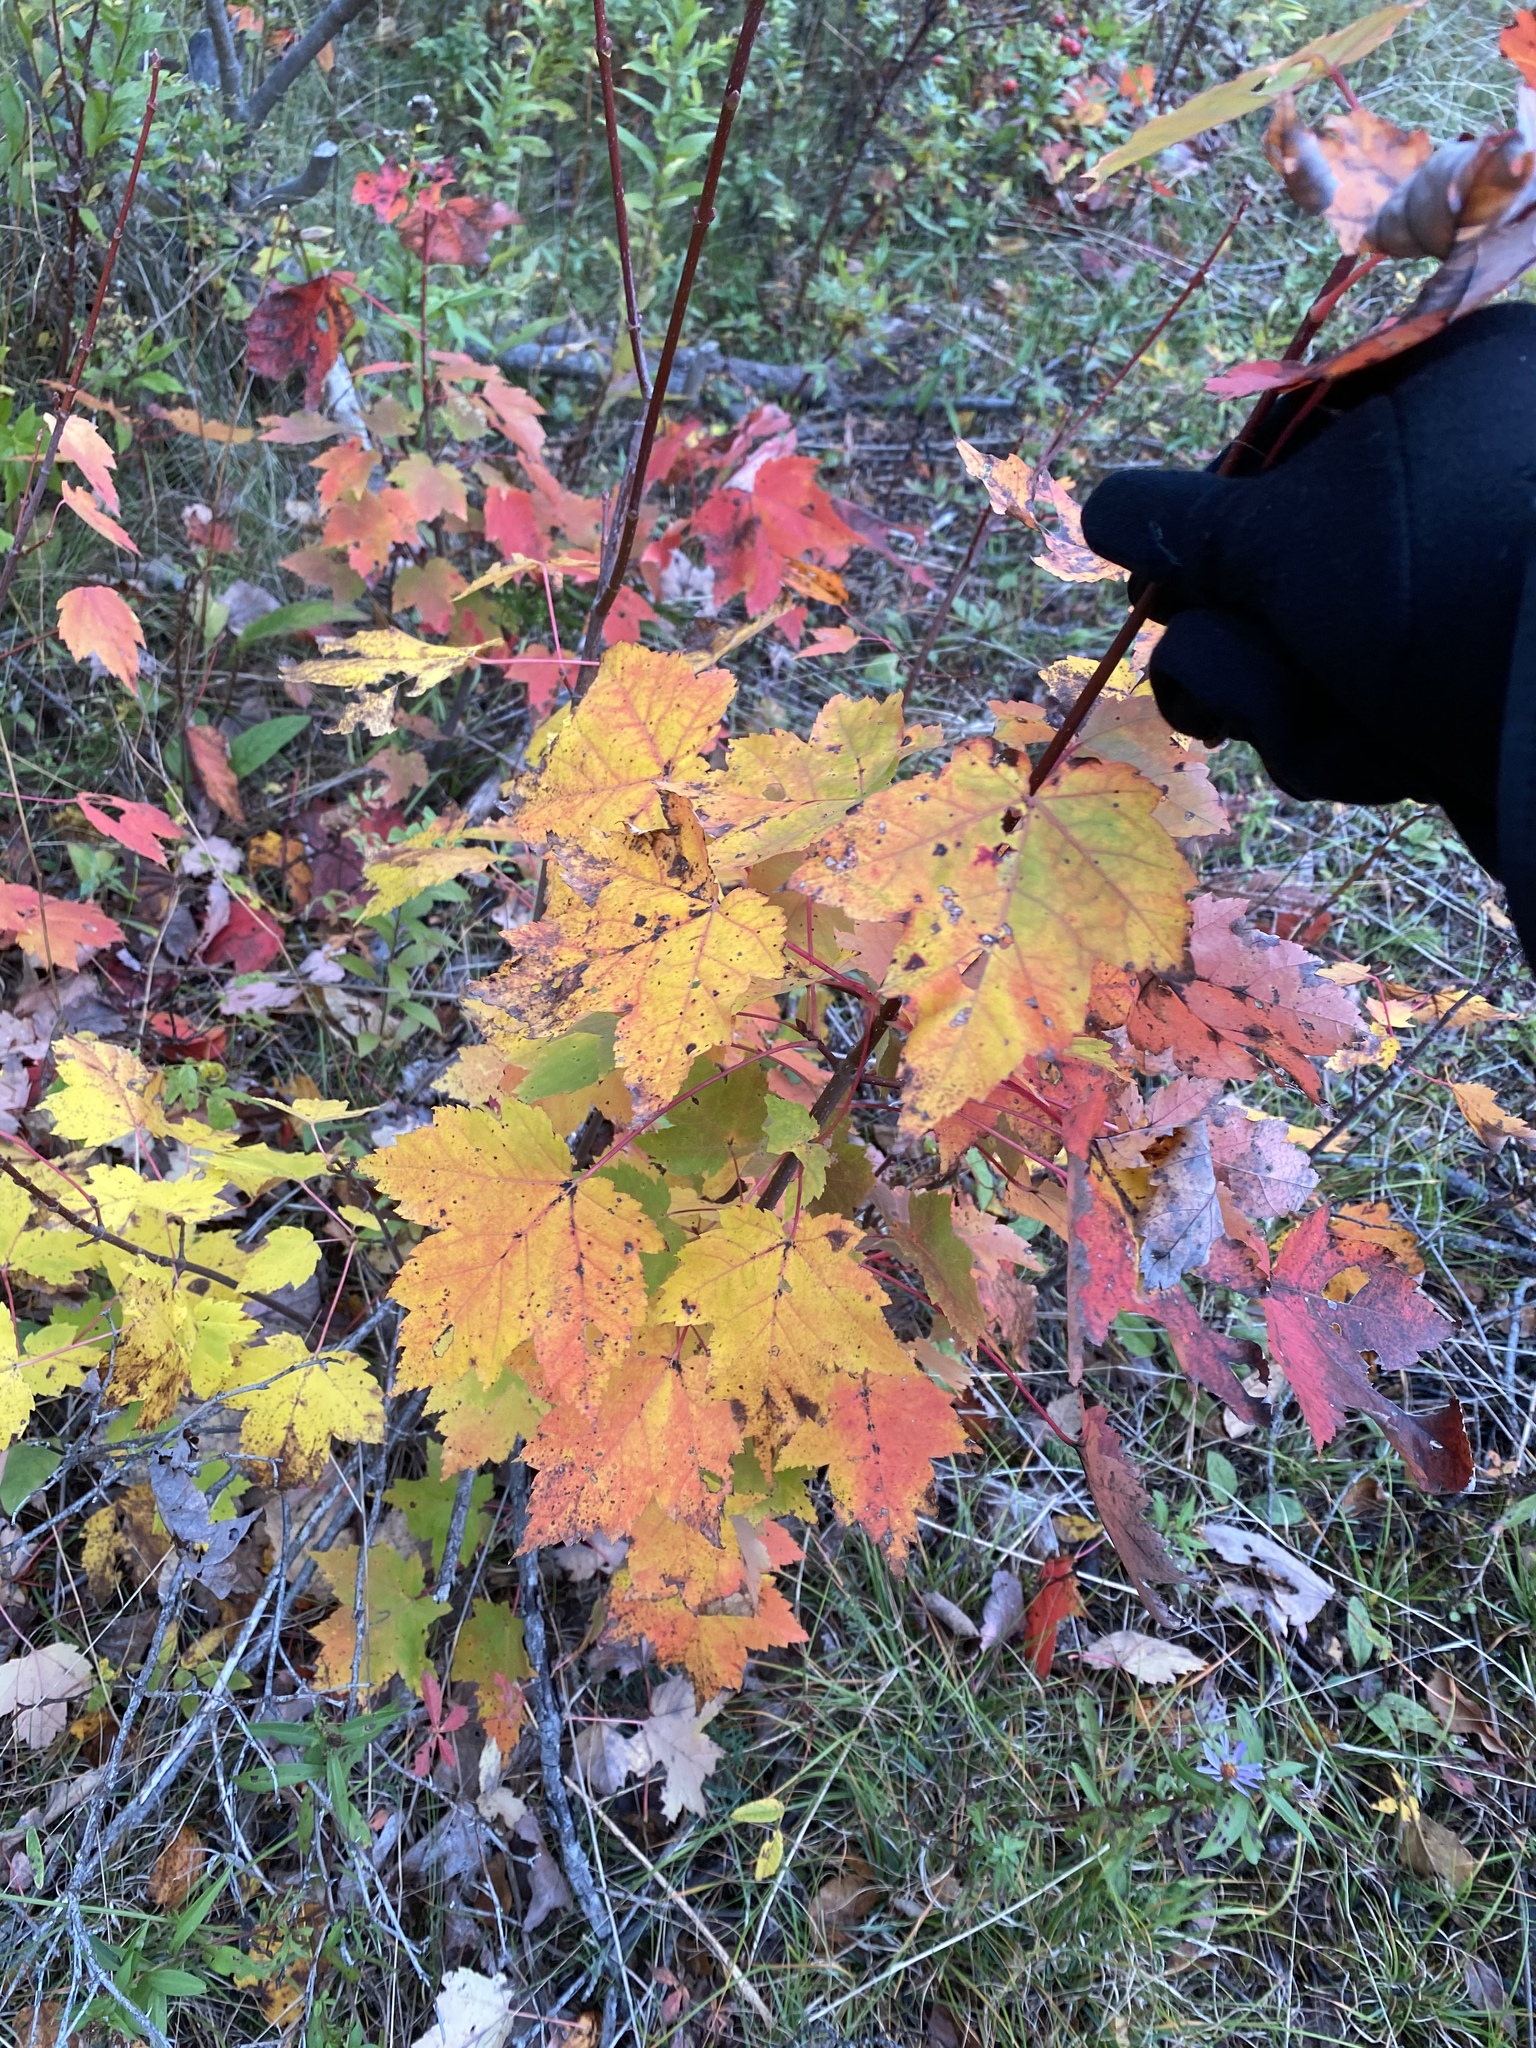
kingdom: Plantae
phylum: Tracheophyta
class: Magnoliopsida
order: Sapindales
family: Sapindaceae
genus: Acer
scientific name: Acer rubrum
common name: Red maple
